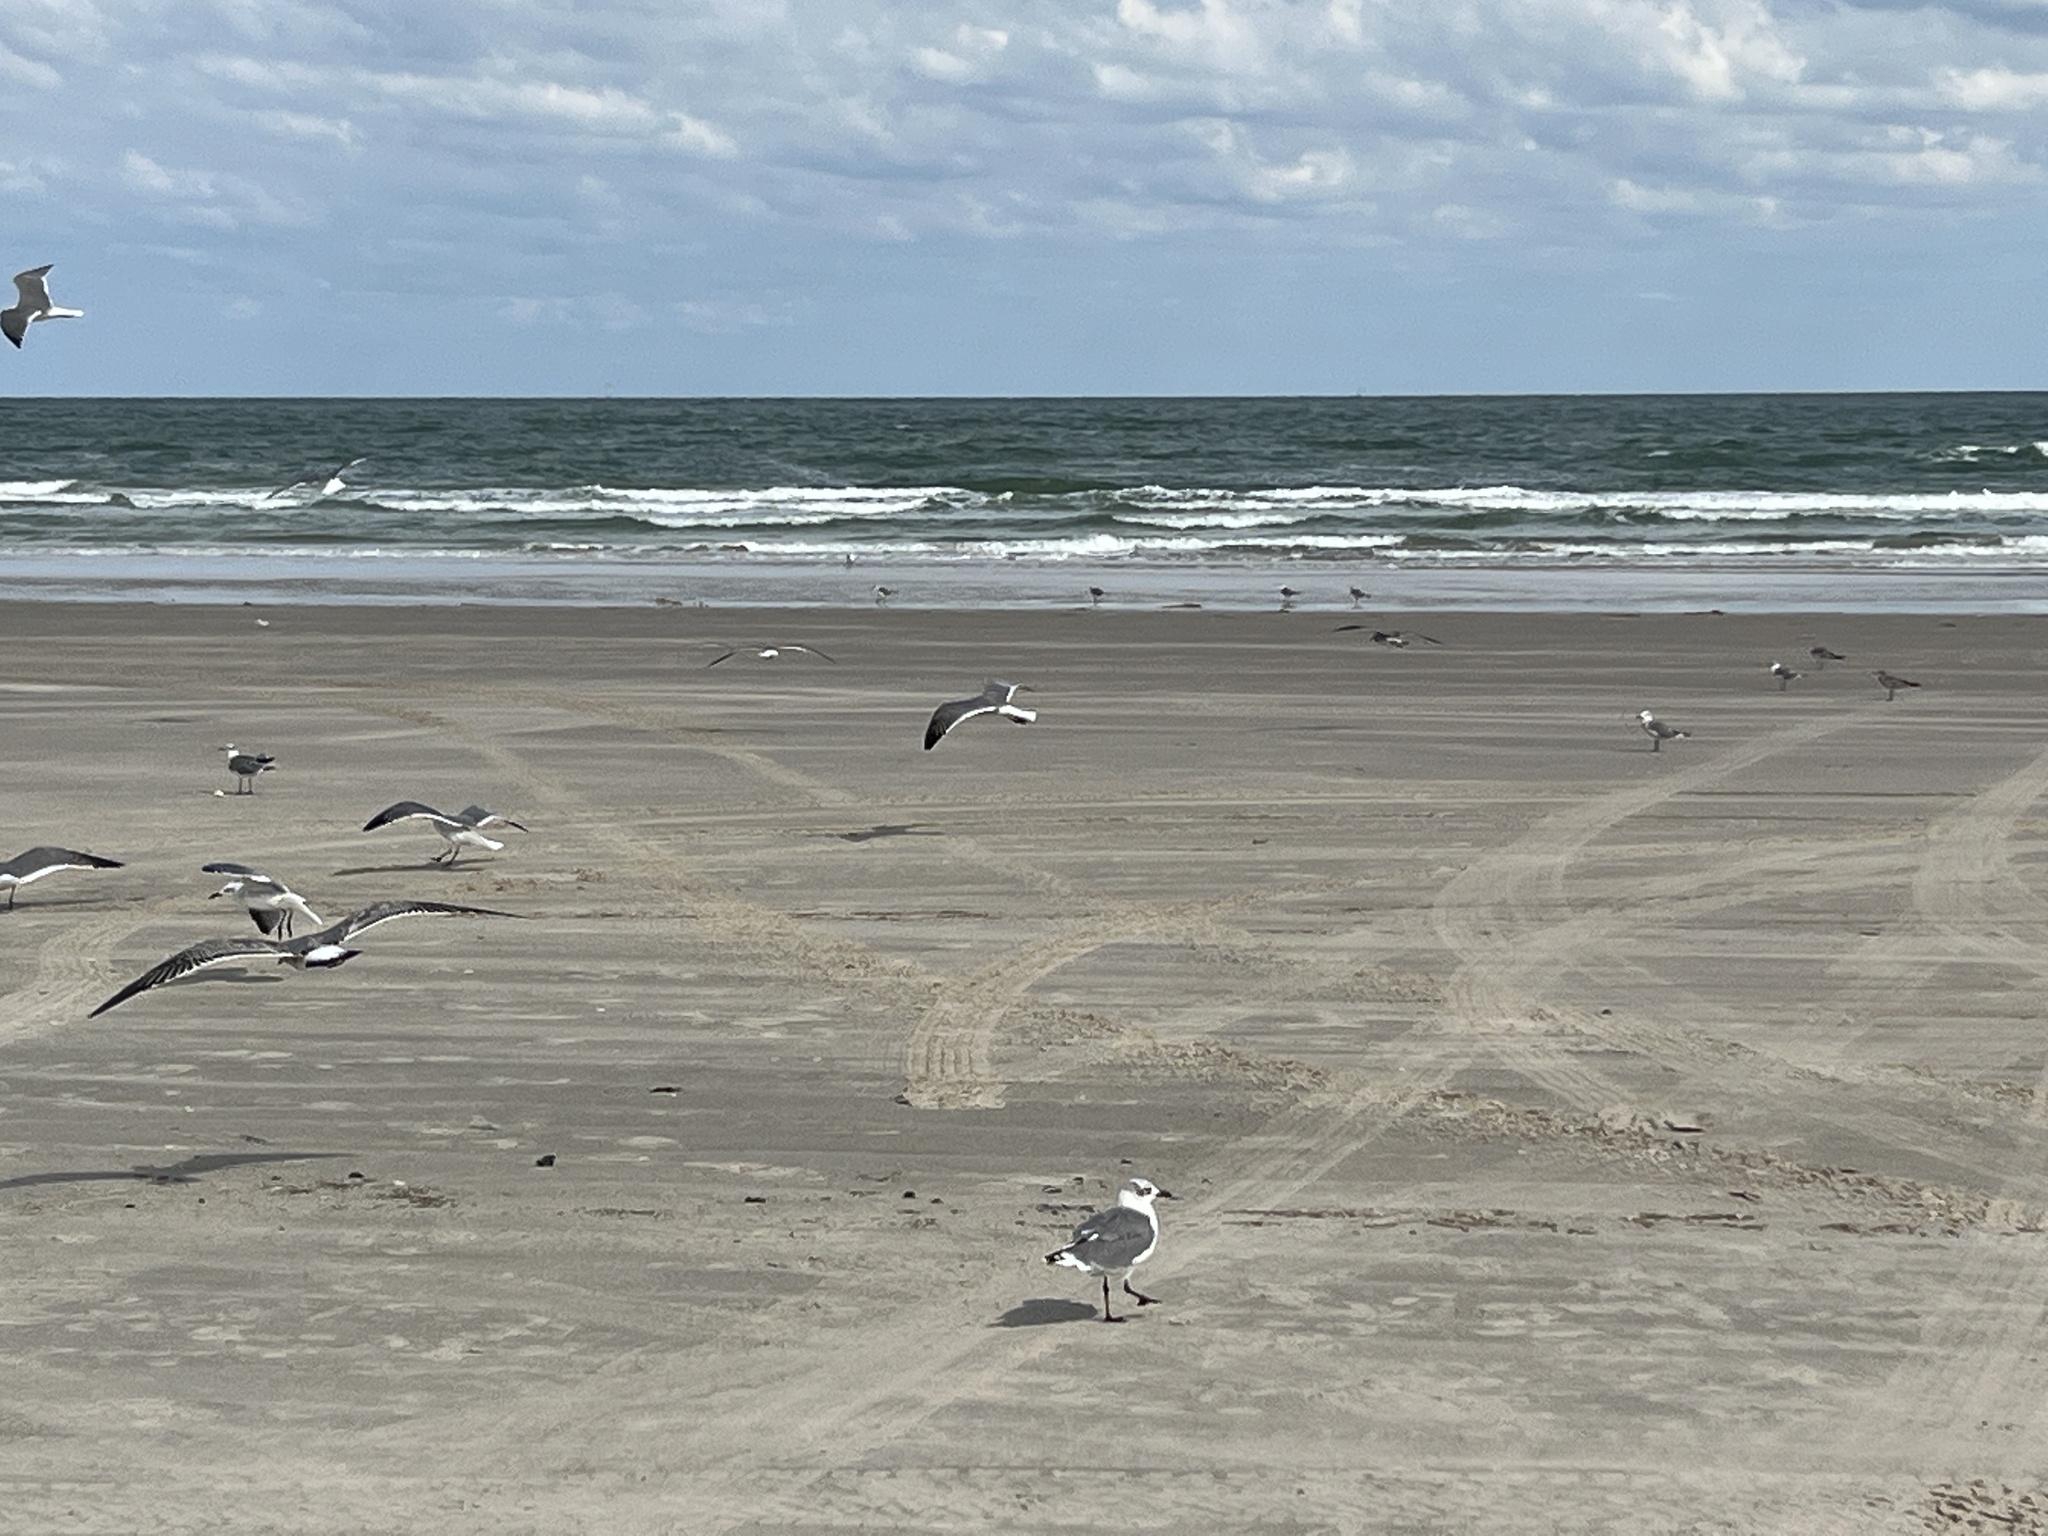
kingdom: Animalia
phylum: Chordata
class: Aves
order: Charadriiformes
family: Laridae
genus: Leucophaeus
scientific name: Leucophaeus atricilla
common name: Laughing gull
